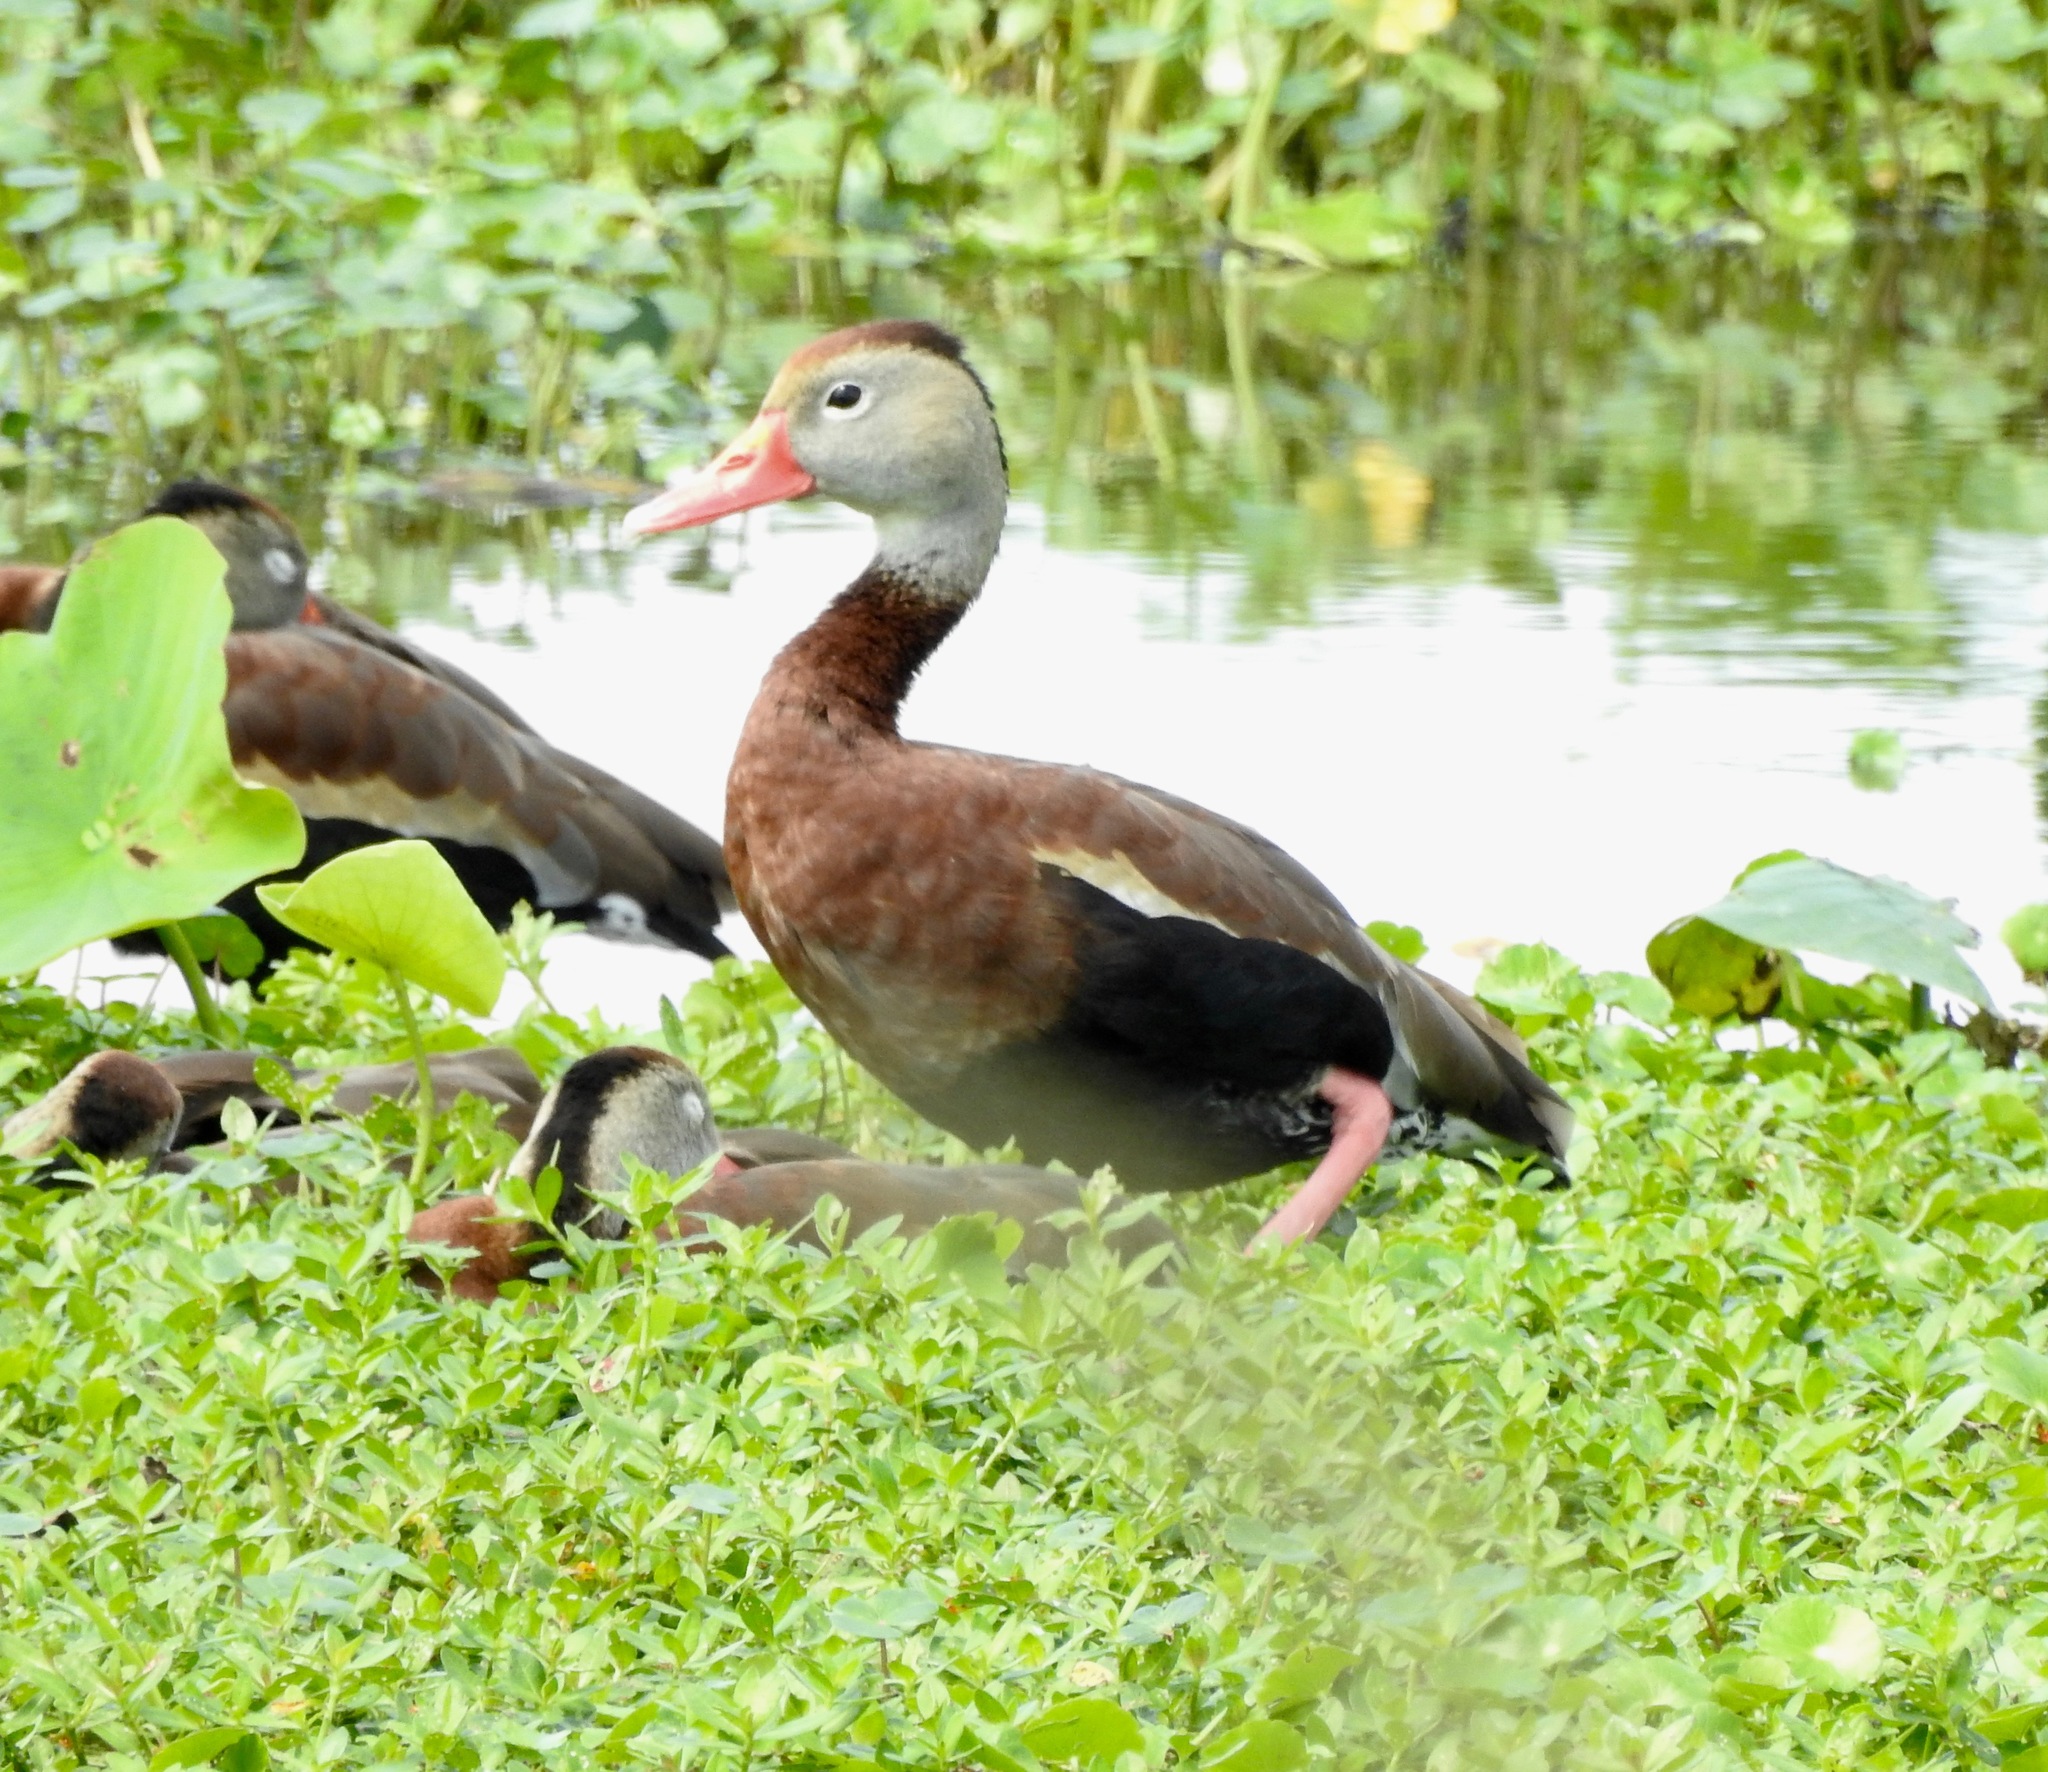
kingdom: Animalia
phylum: Chordata
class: Aves
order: Anseriformes
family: Anatidae
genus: Dendrocygna
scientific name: Dendrocygna autumnalis
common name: Black-bellied whistling duck
